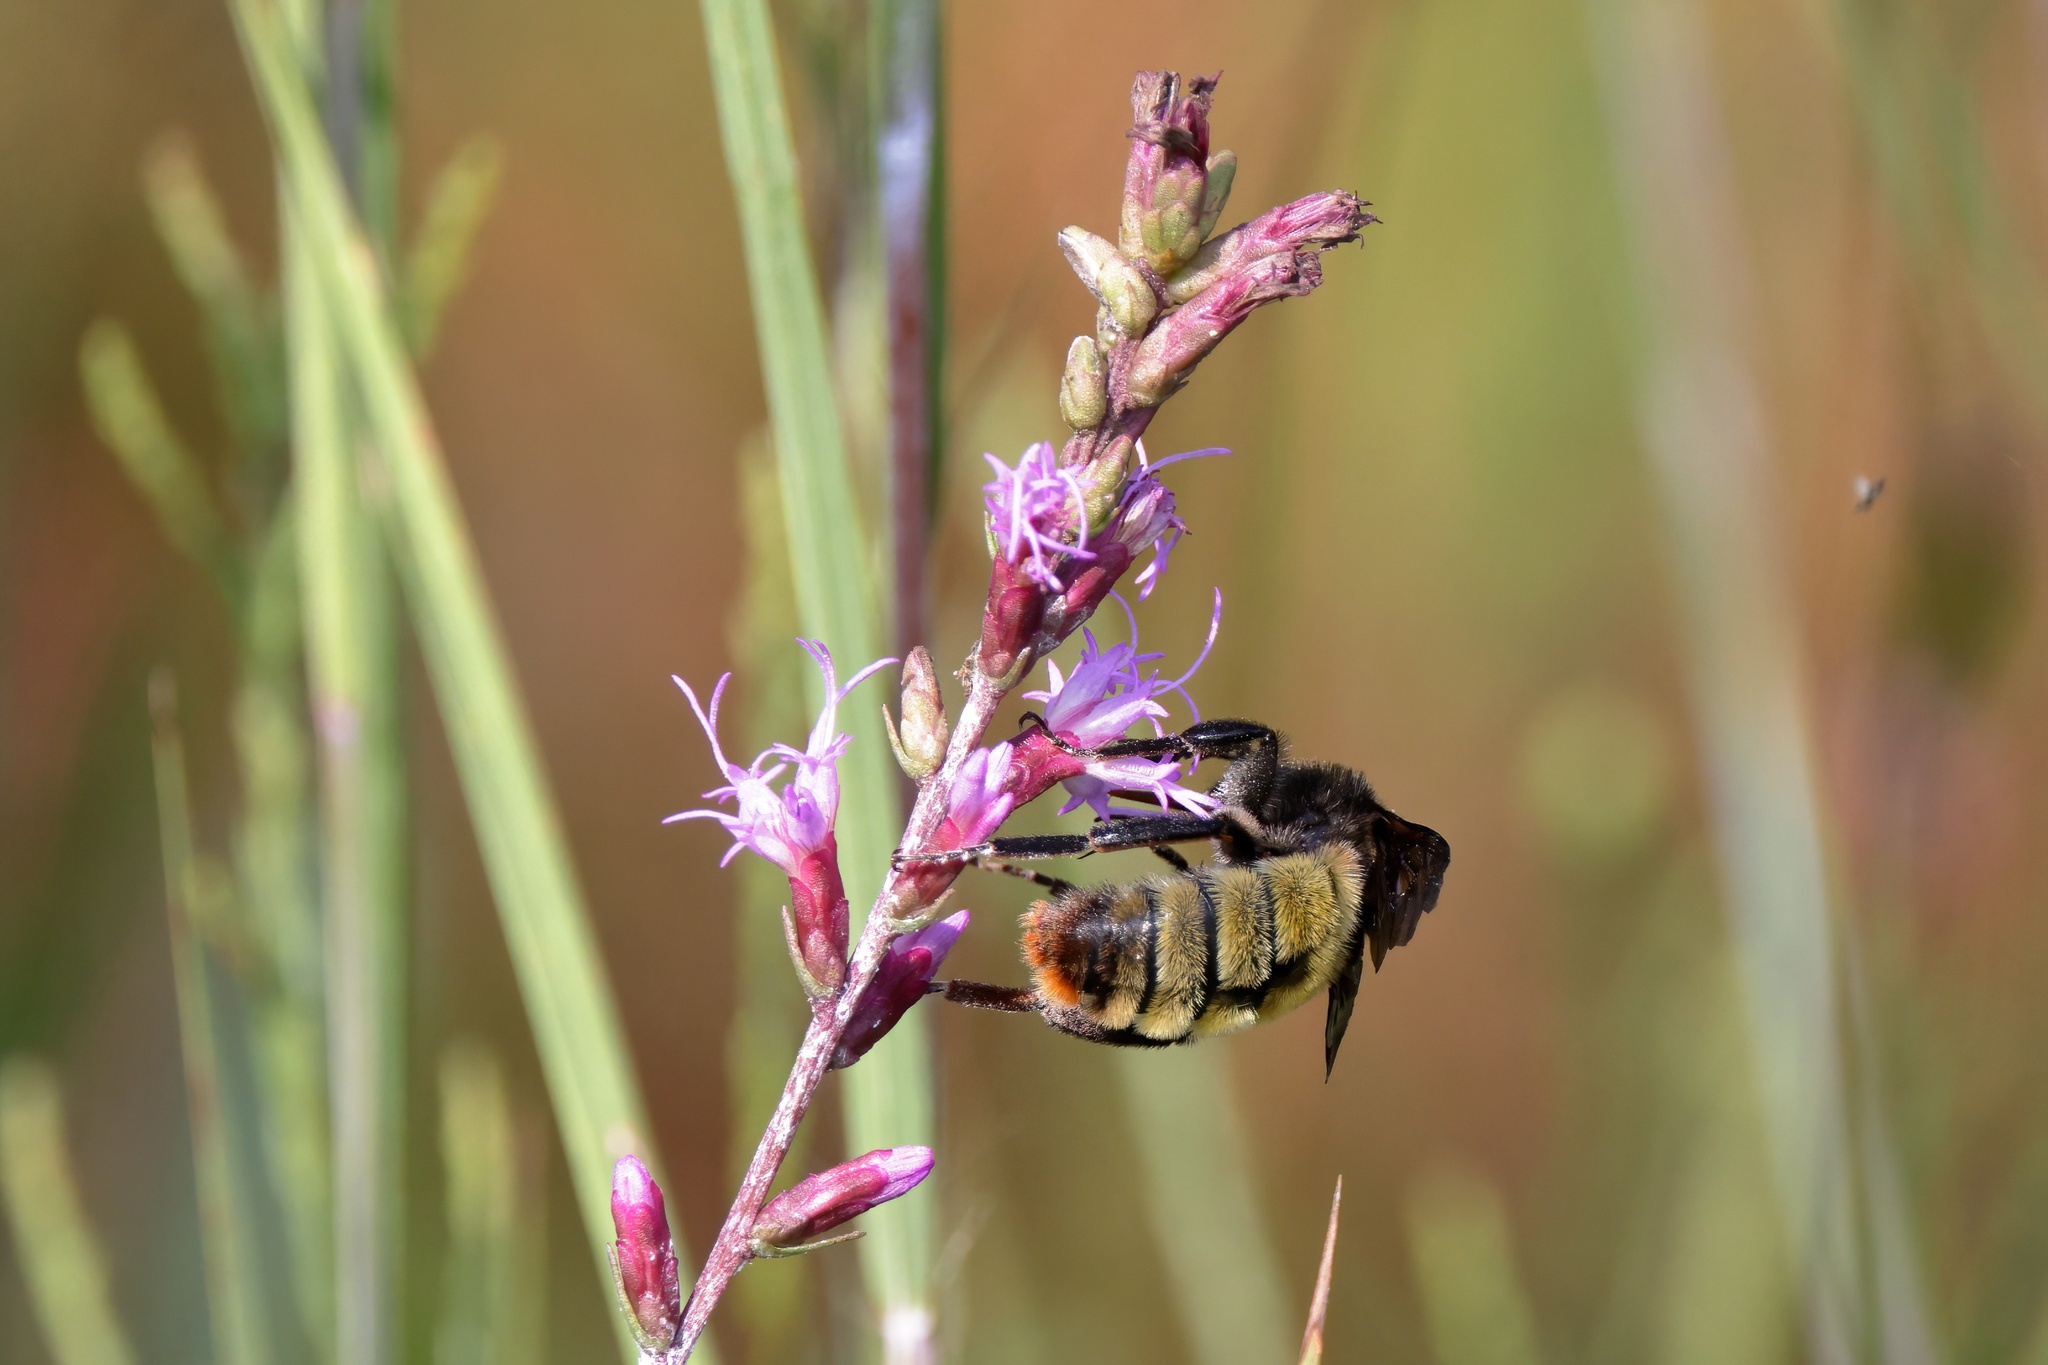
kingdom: Animalia
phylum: Arthropoda
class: Insecta
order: Hymenoptera
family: Apidae
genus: Bombus
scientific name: Bombus pensylvanicus
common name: Bumble bee
